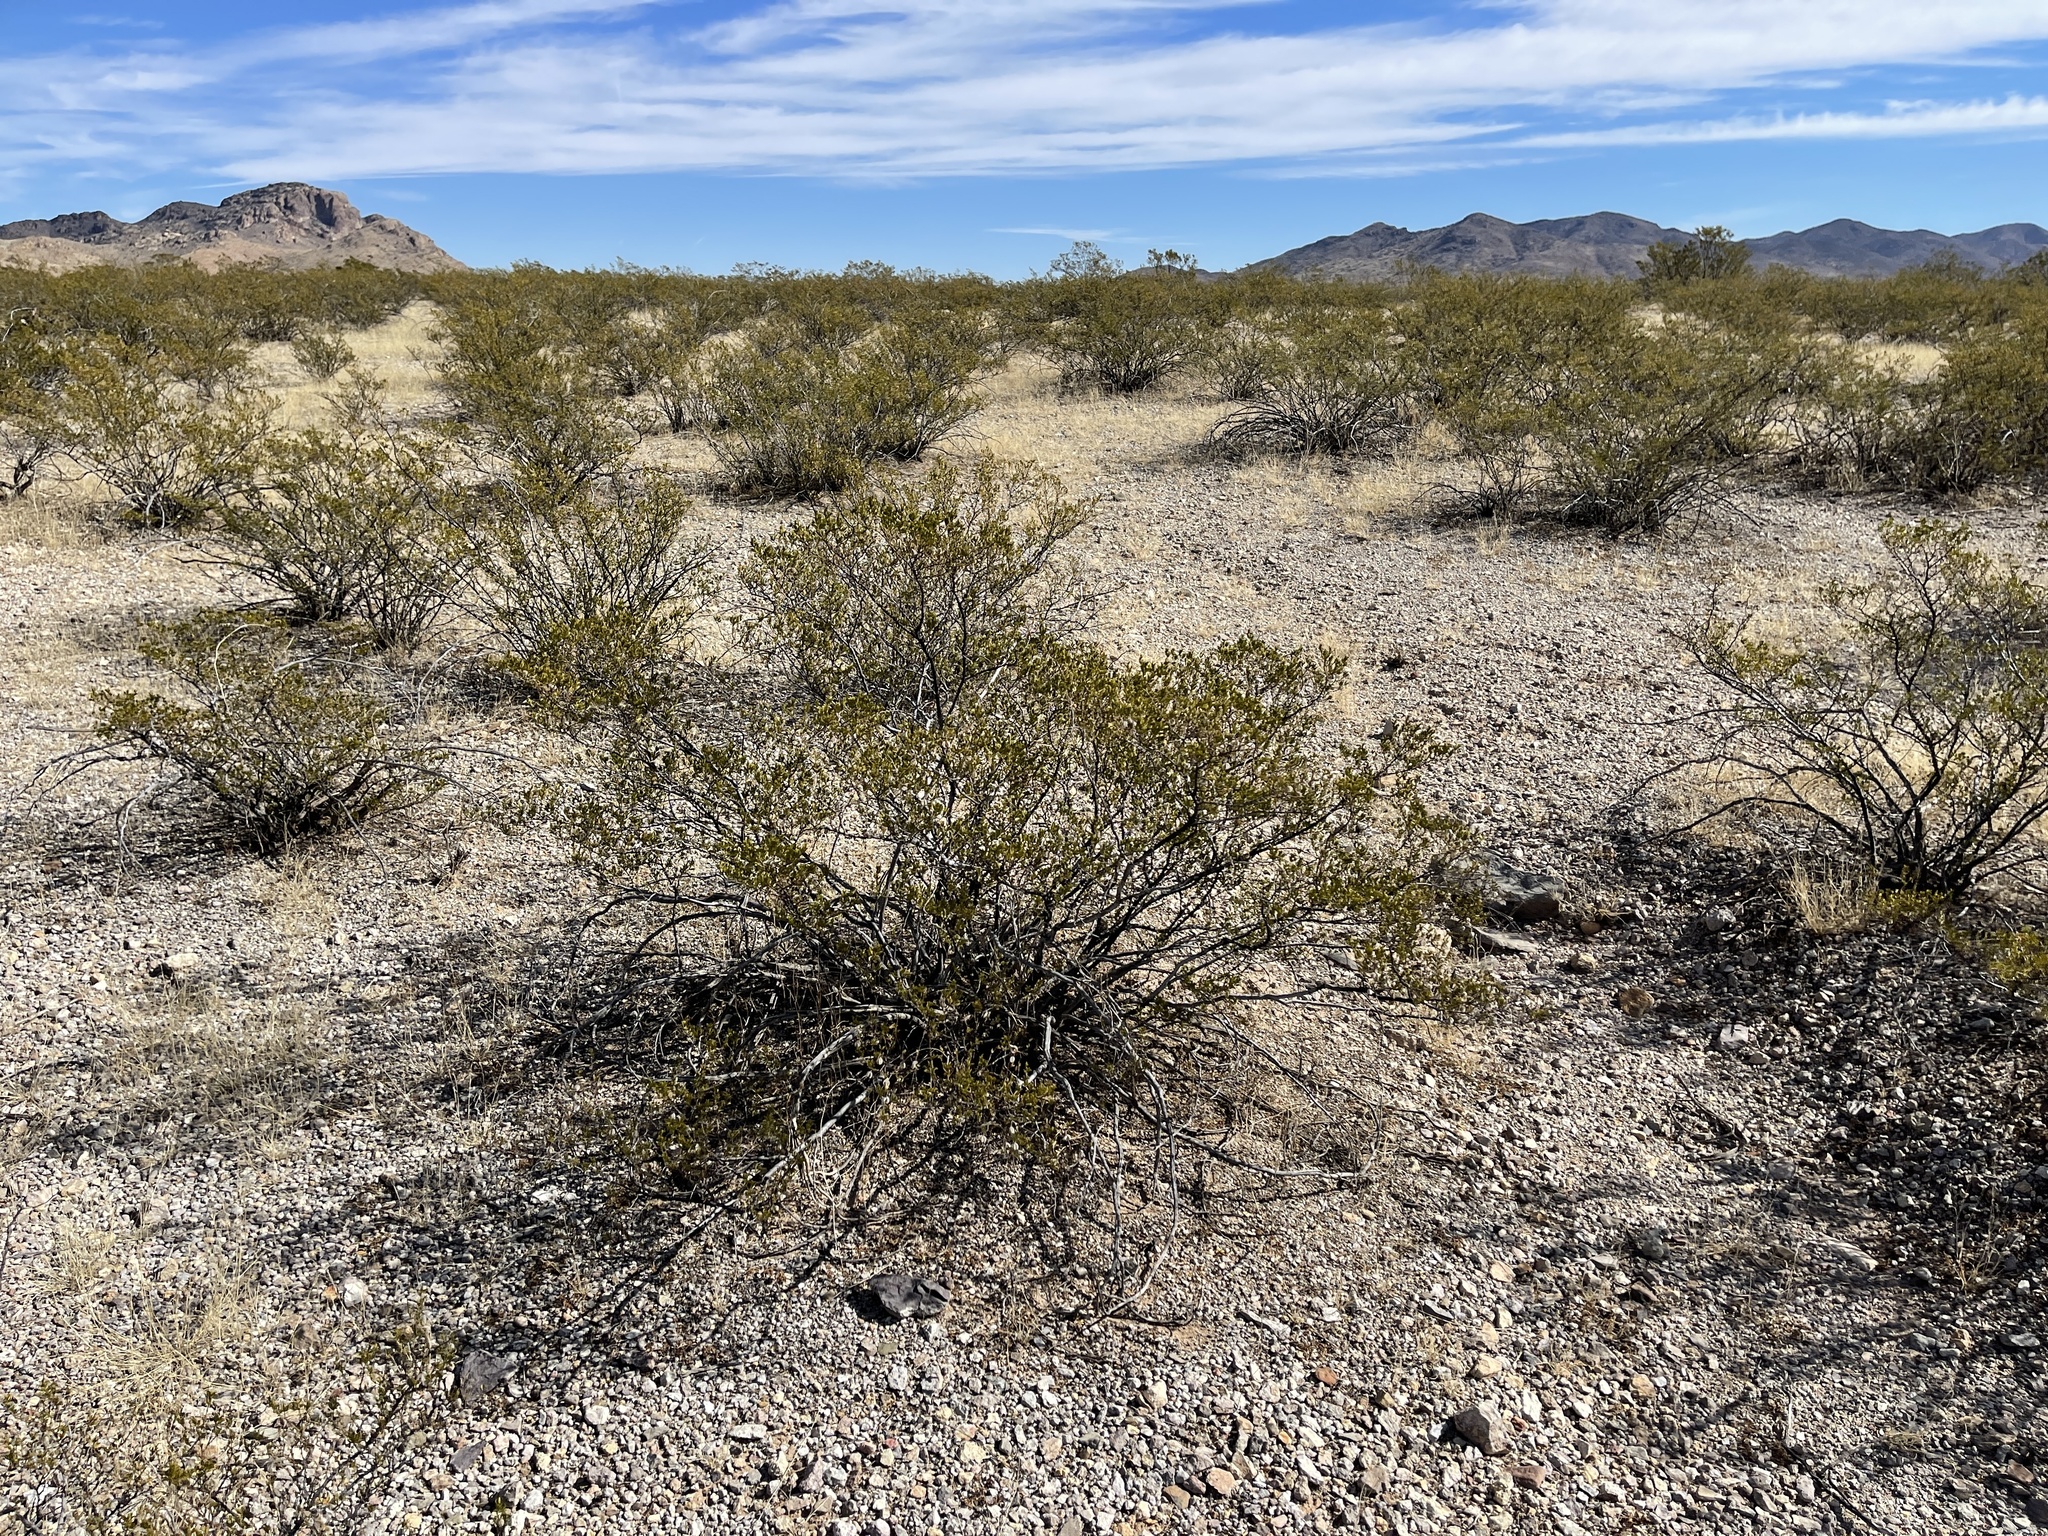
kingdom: Plantae
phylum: Tracheophyta
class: Magnoliopsida
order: Zygophyllales
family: Zygophyllaceae
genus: Larrea
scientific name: Larrea tridentata
